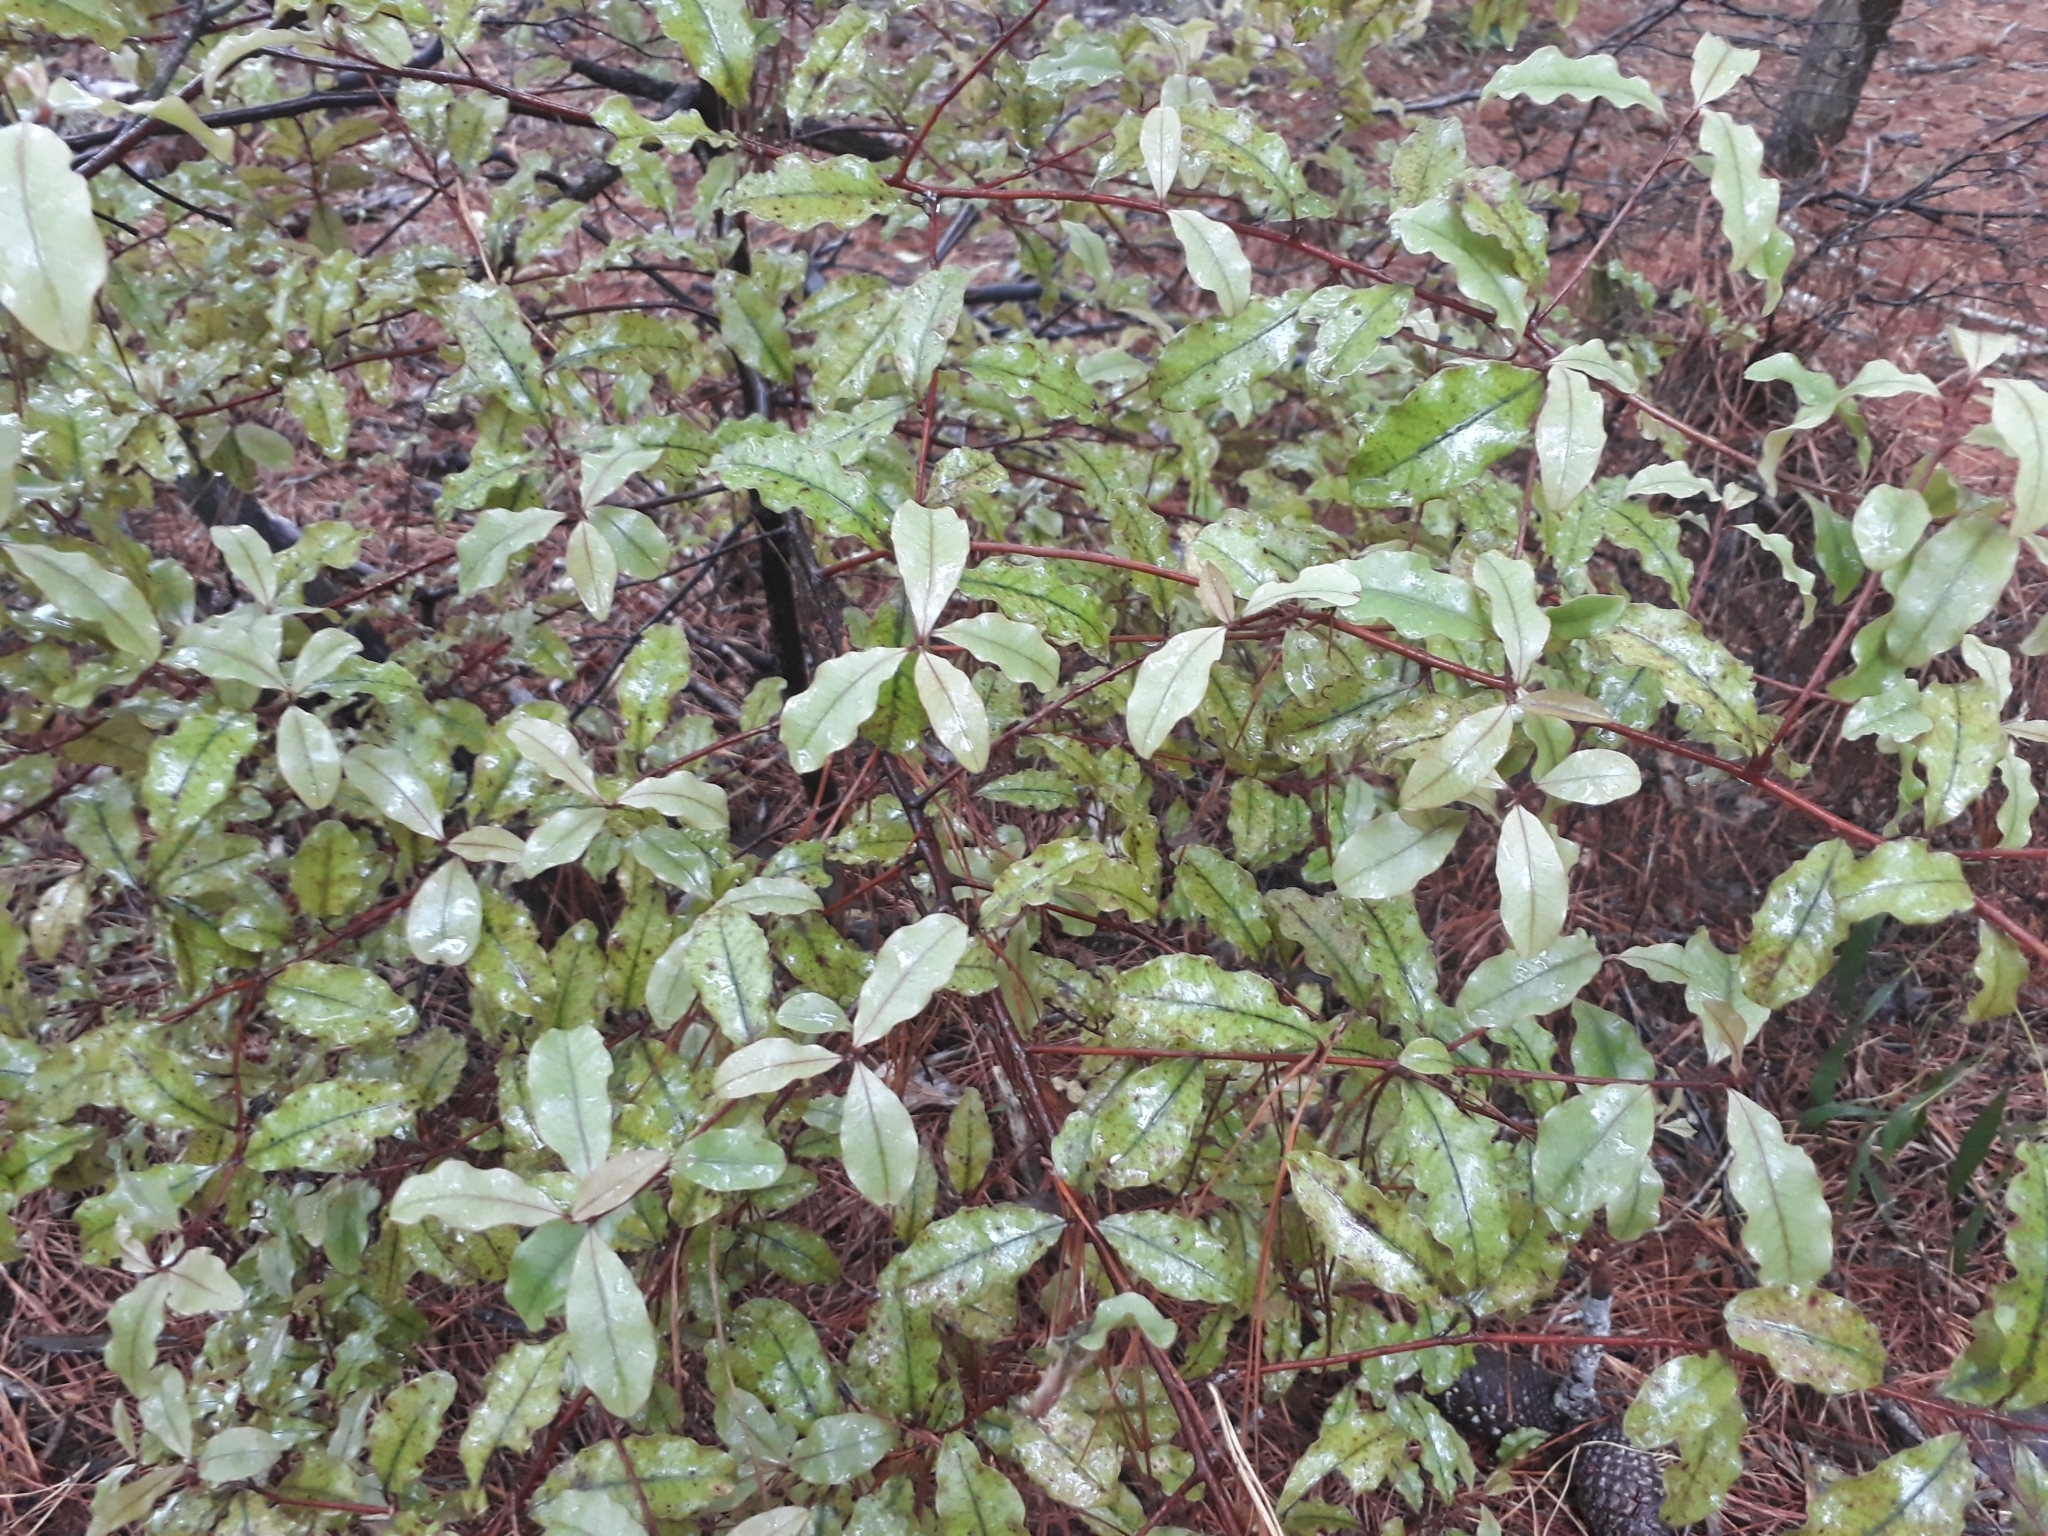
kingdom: Plantae
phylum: Tracheophyta
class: Magnoliopsida
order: Ericales
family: Primulaceae
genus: Myrsine
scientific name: Myrsine australis
